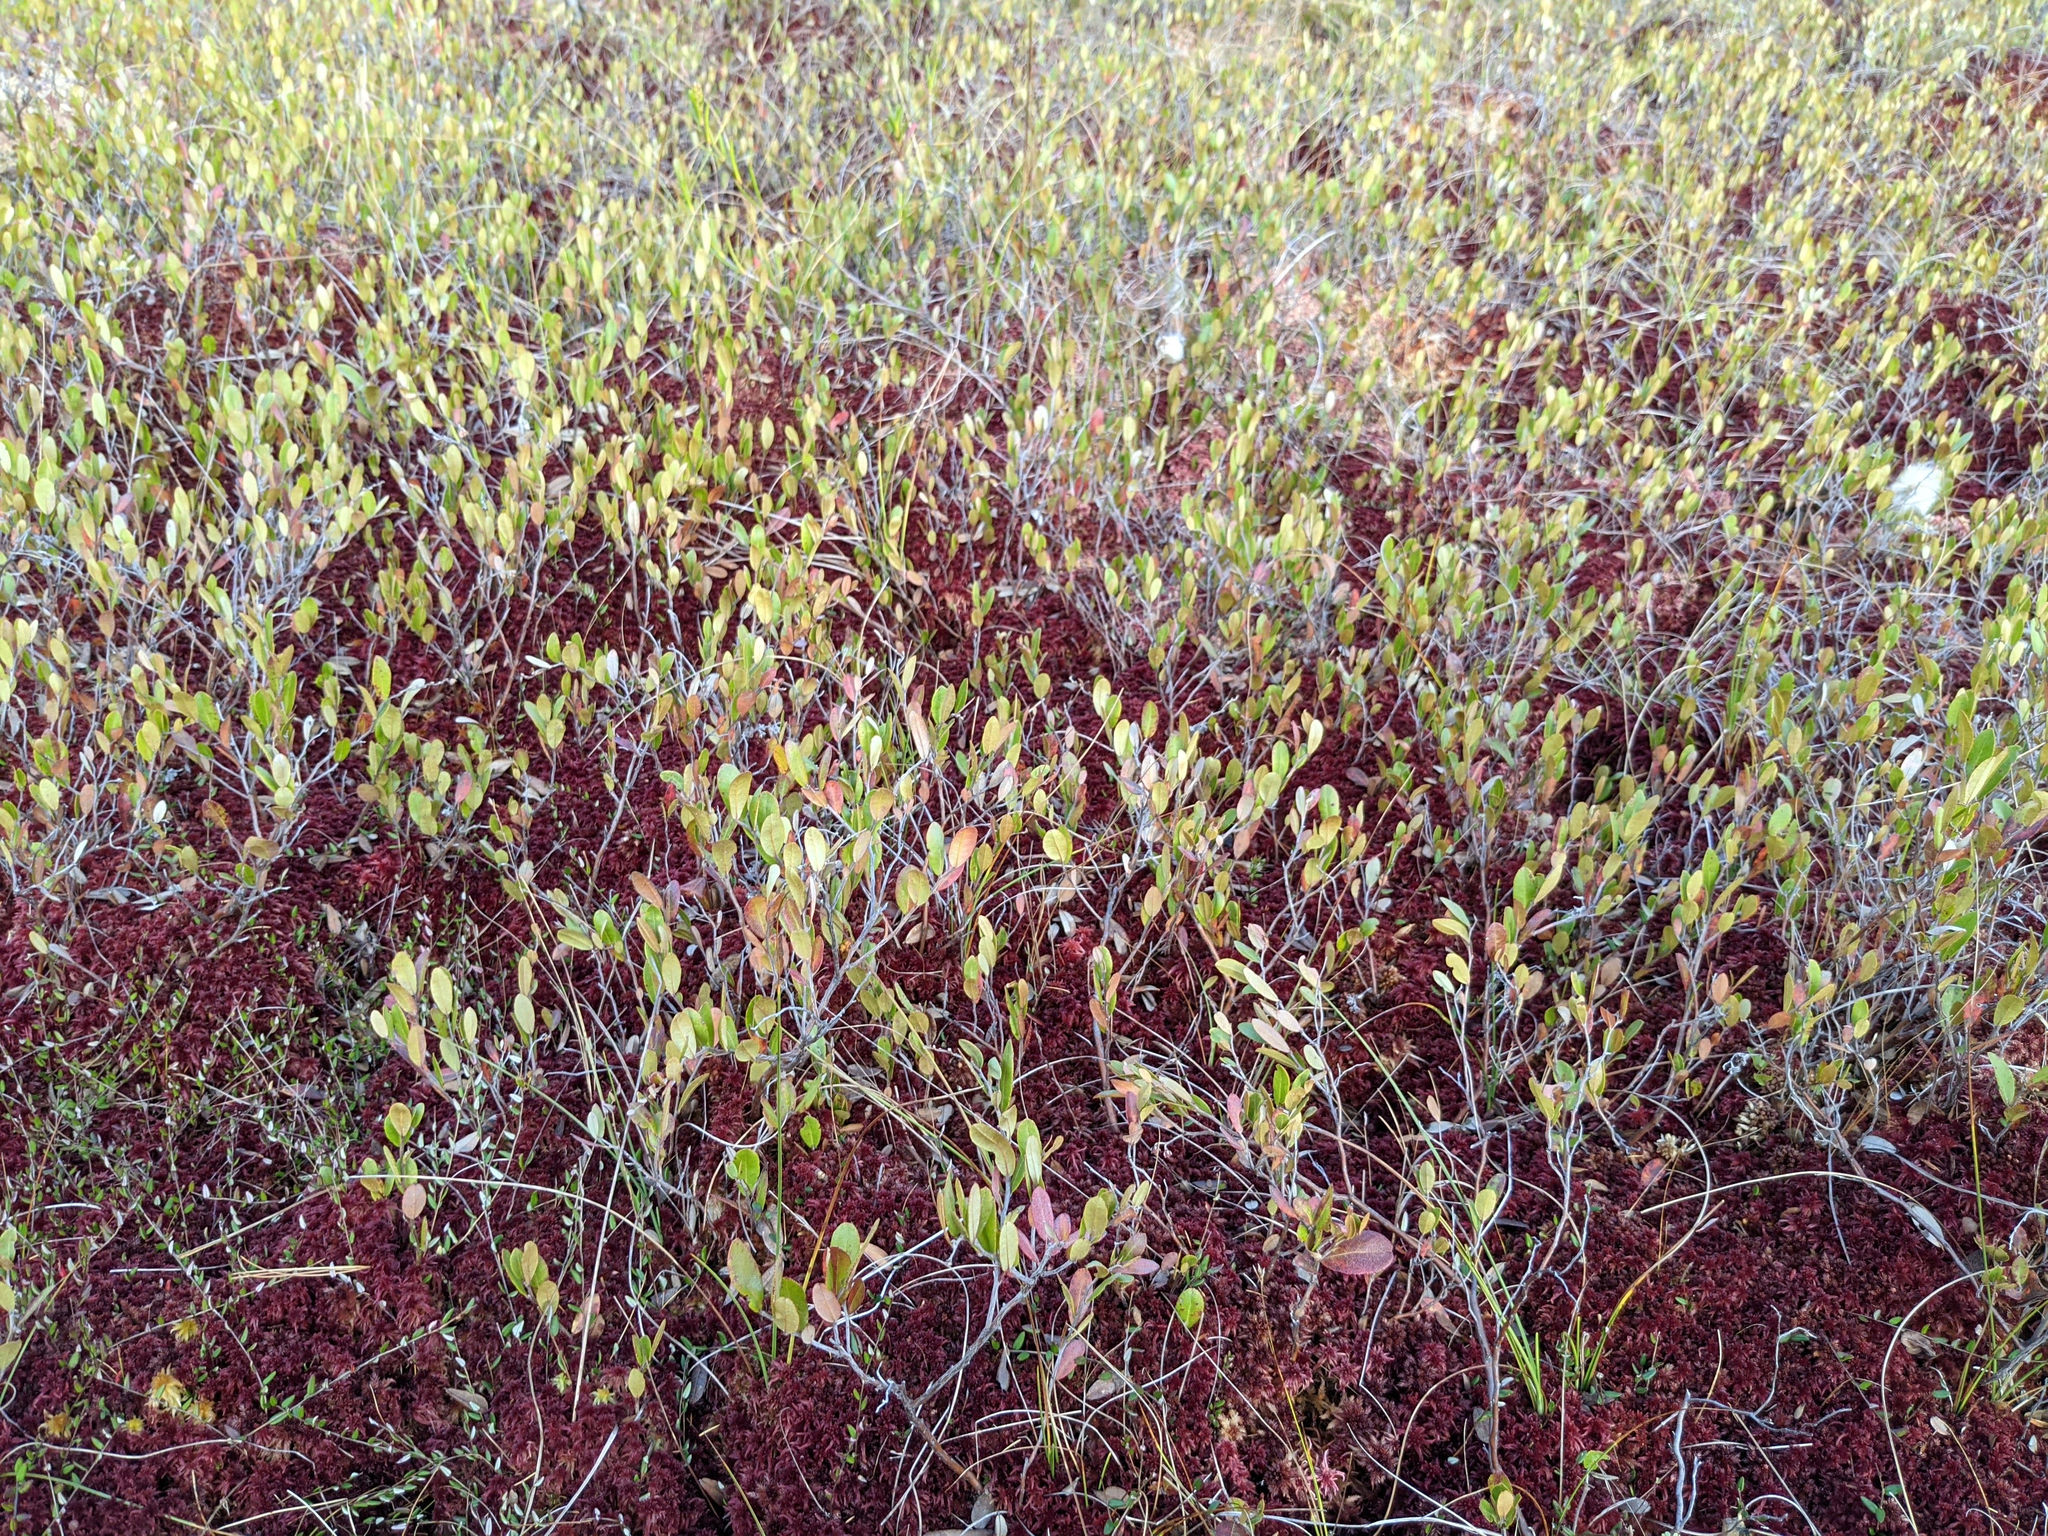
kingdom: Plantae
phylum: Tracheophyta
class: Magnoliopsida
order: Ericales
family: Ericaceae
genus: Chamaedaphne
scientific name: Chamaedaphne calyculata
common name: Leatherleaf
